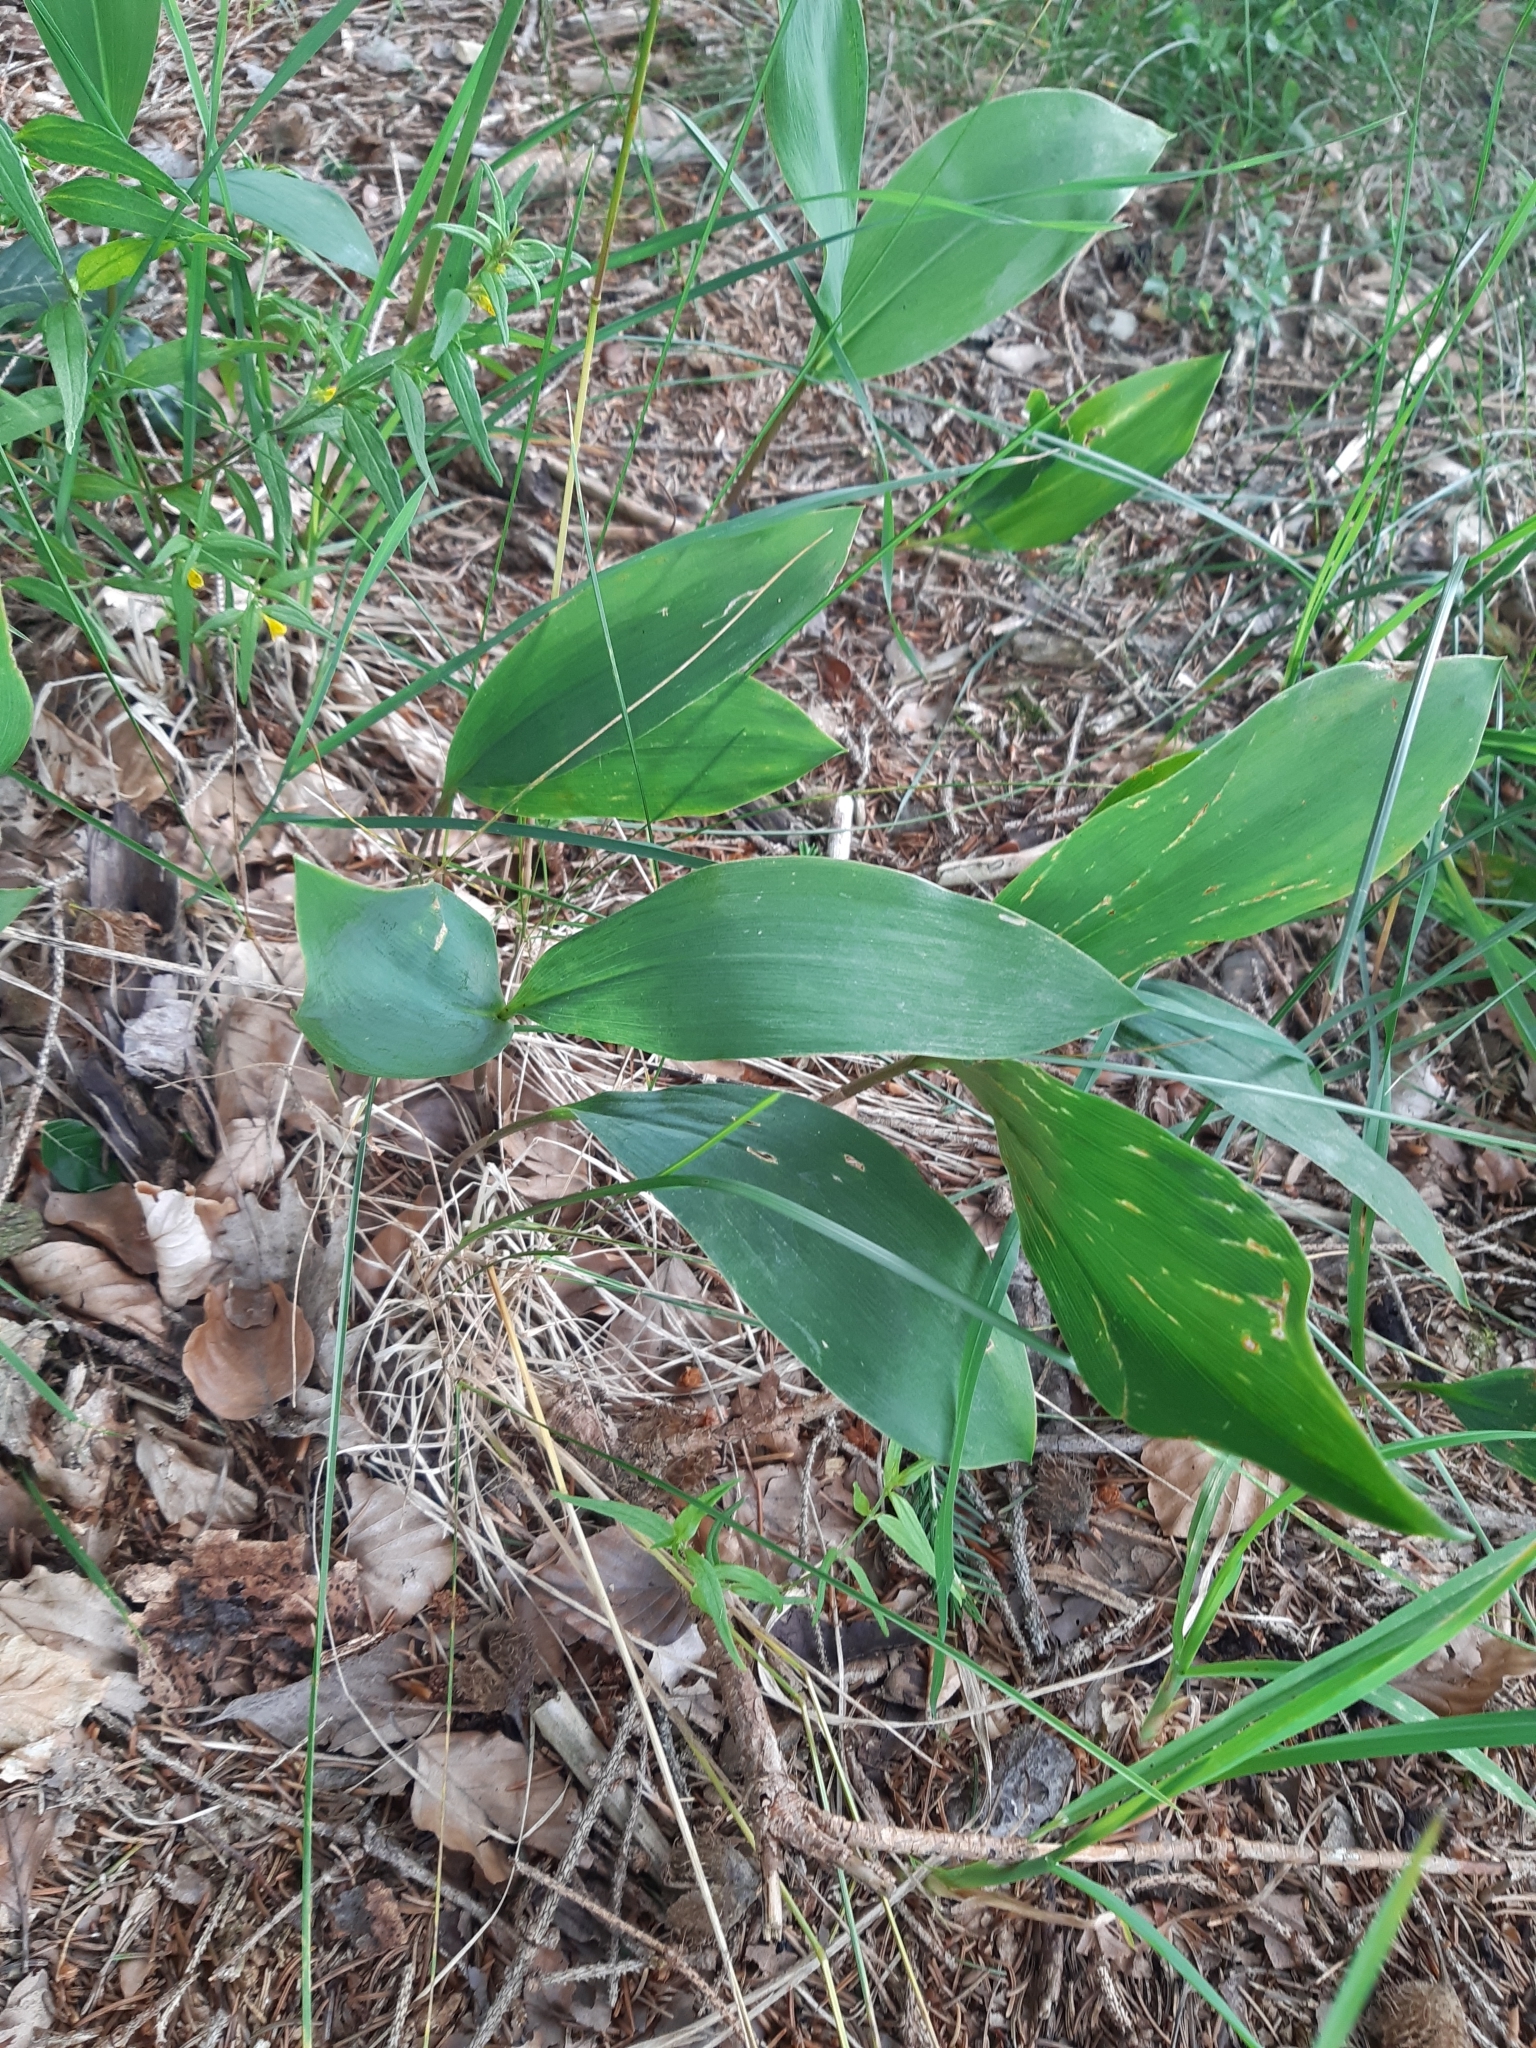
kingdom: Plantae
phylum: Tracheophyta
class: Liliopsida
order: Asparagales
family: Asparagaceae
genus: Convallaria
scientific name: Convallaria majalis
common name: Lily-of-the-valley
